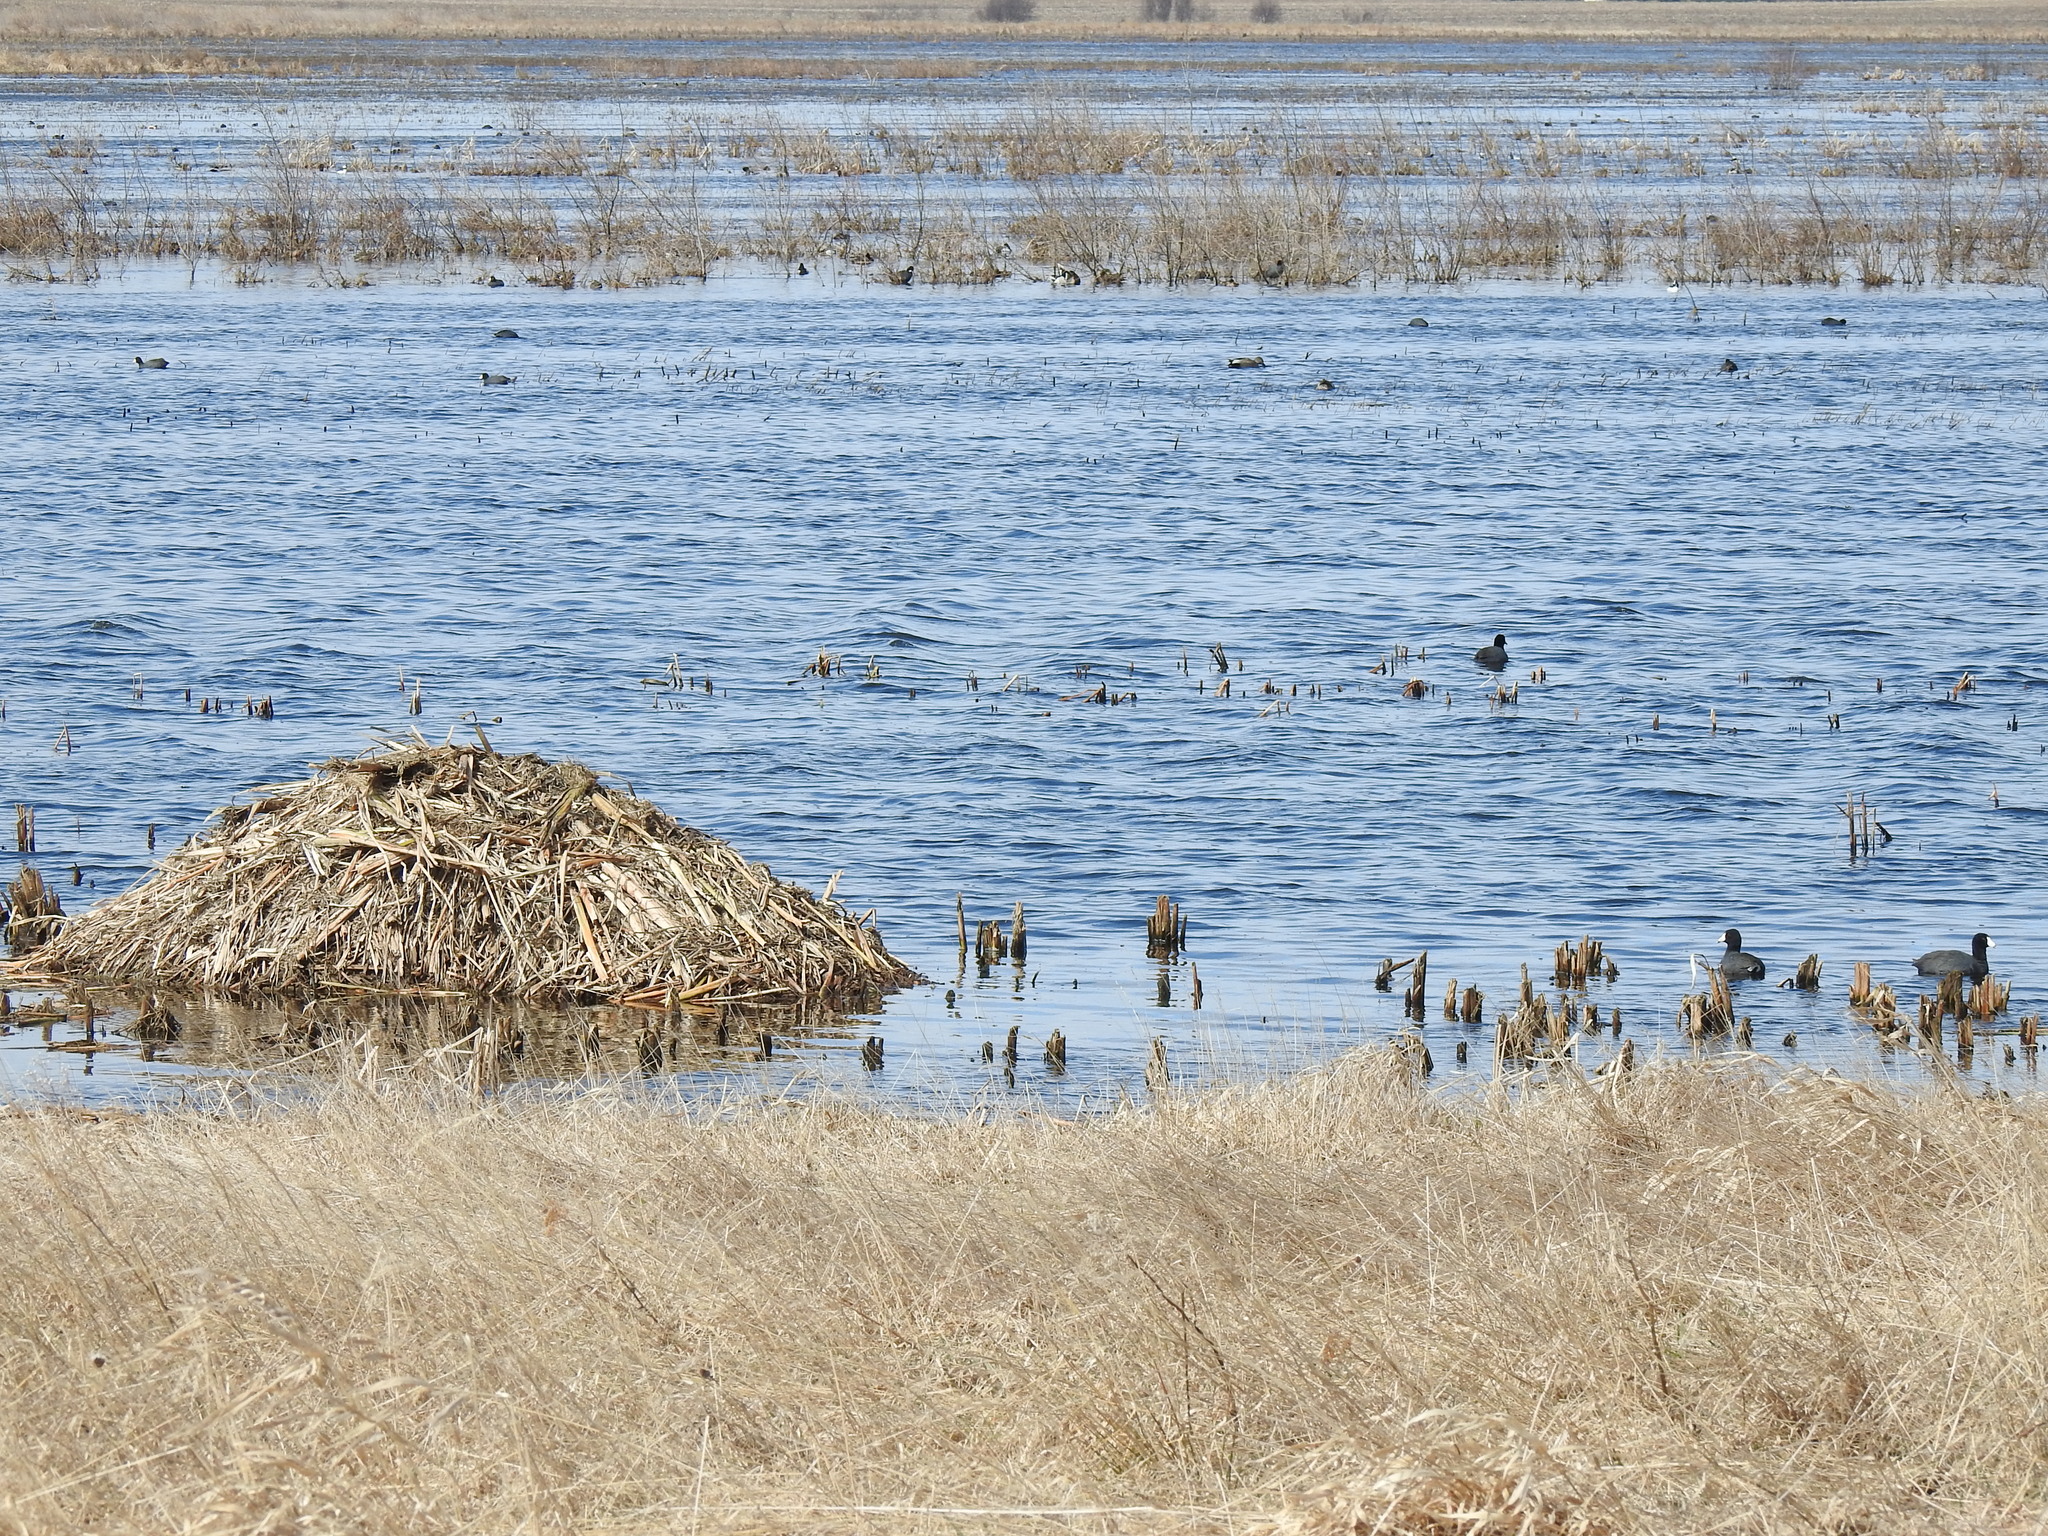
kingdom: Animalia
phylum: Chordata
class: Mammalia
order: Rodentia
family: Cricetidae
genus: Ondatra
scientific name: Ondatra zibethicus
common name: Muskrat
